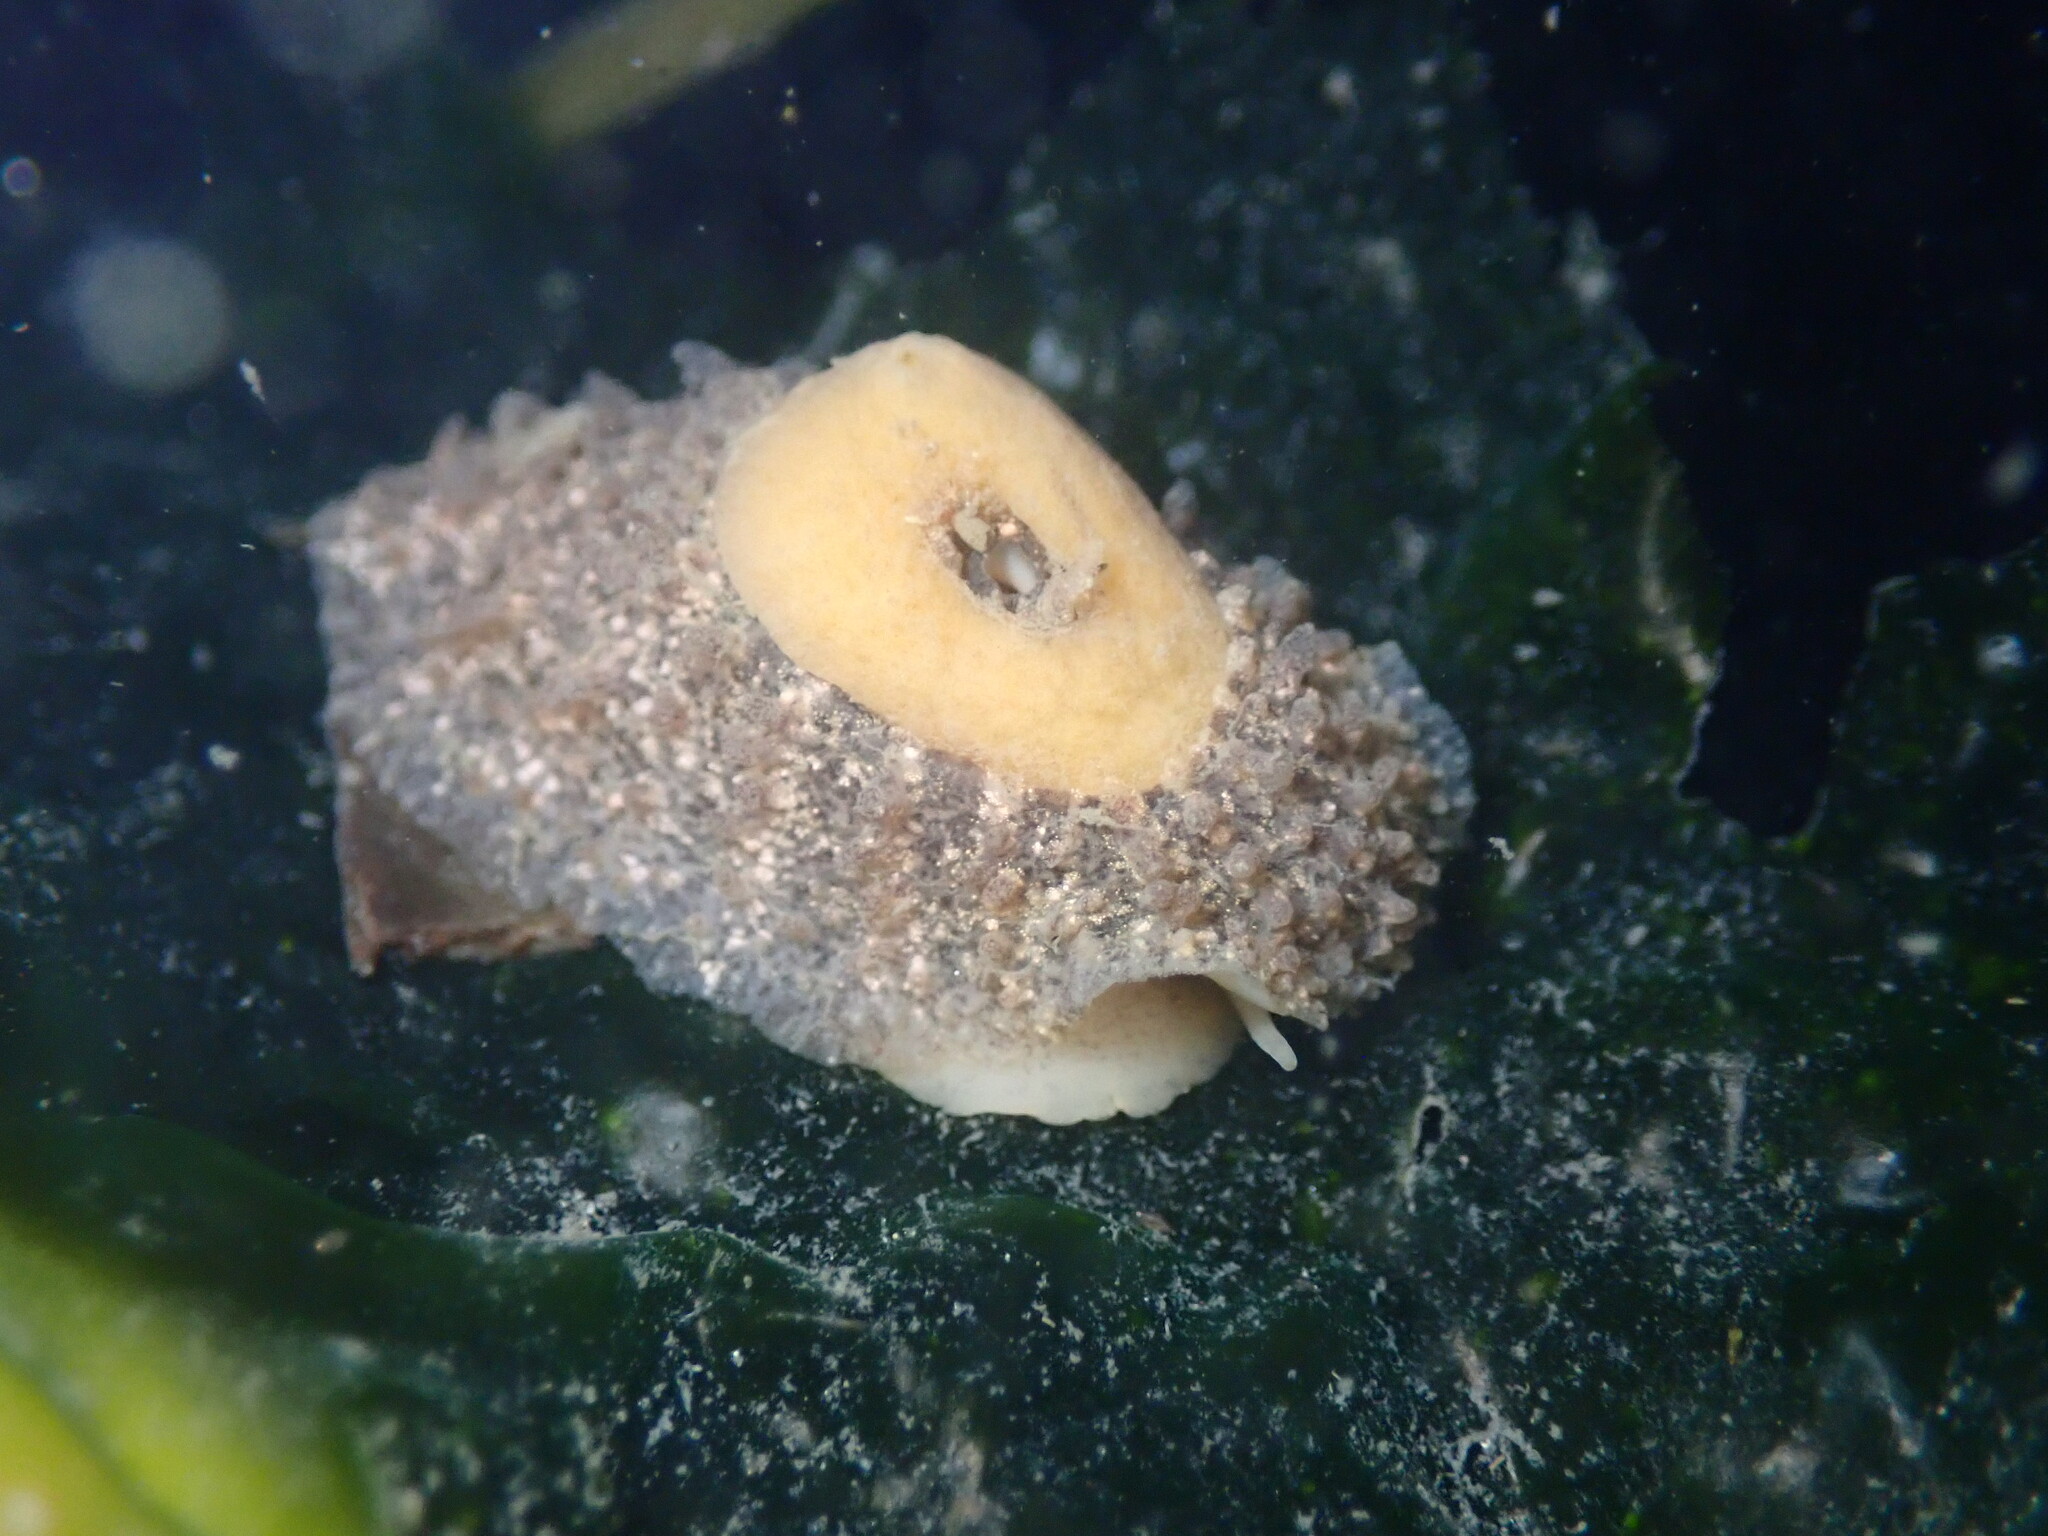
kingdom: Animalia
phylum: Mollusca
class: Gastropoda
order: Lepetellida
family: Fissurellidae
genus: Fissurellidea
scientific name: Fissurellidea bimaculata
